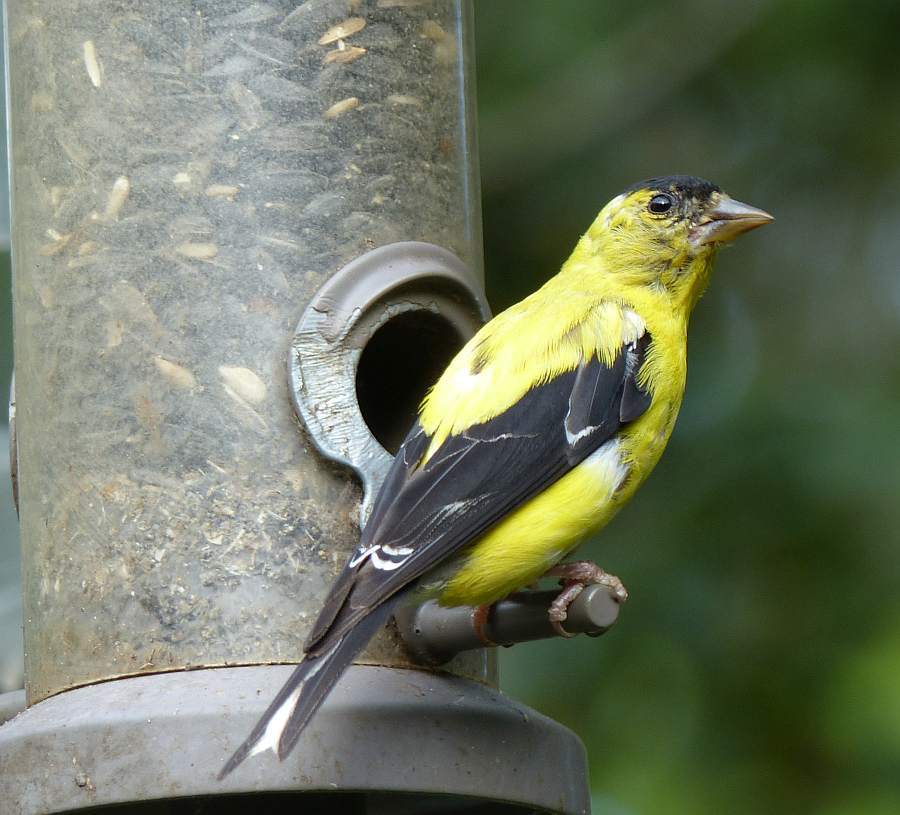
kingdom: Animalia
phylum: Chordata
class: Aves
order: Passeriformes
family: Fringillidae
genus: Spinus
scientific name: Spinus tristis
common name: American goldfinch
